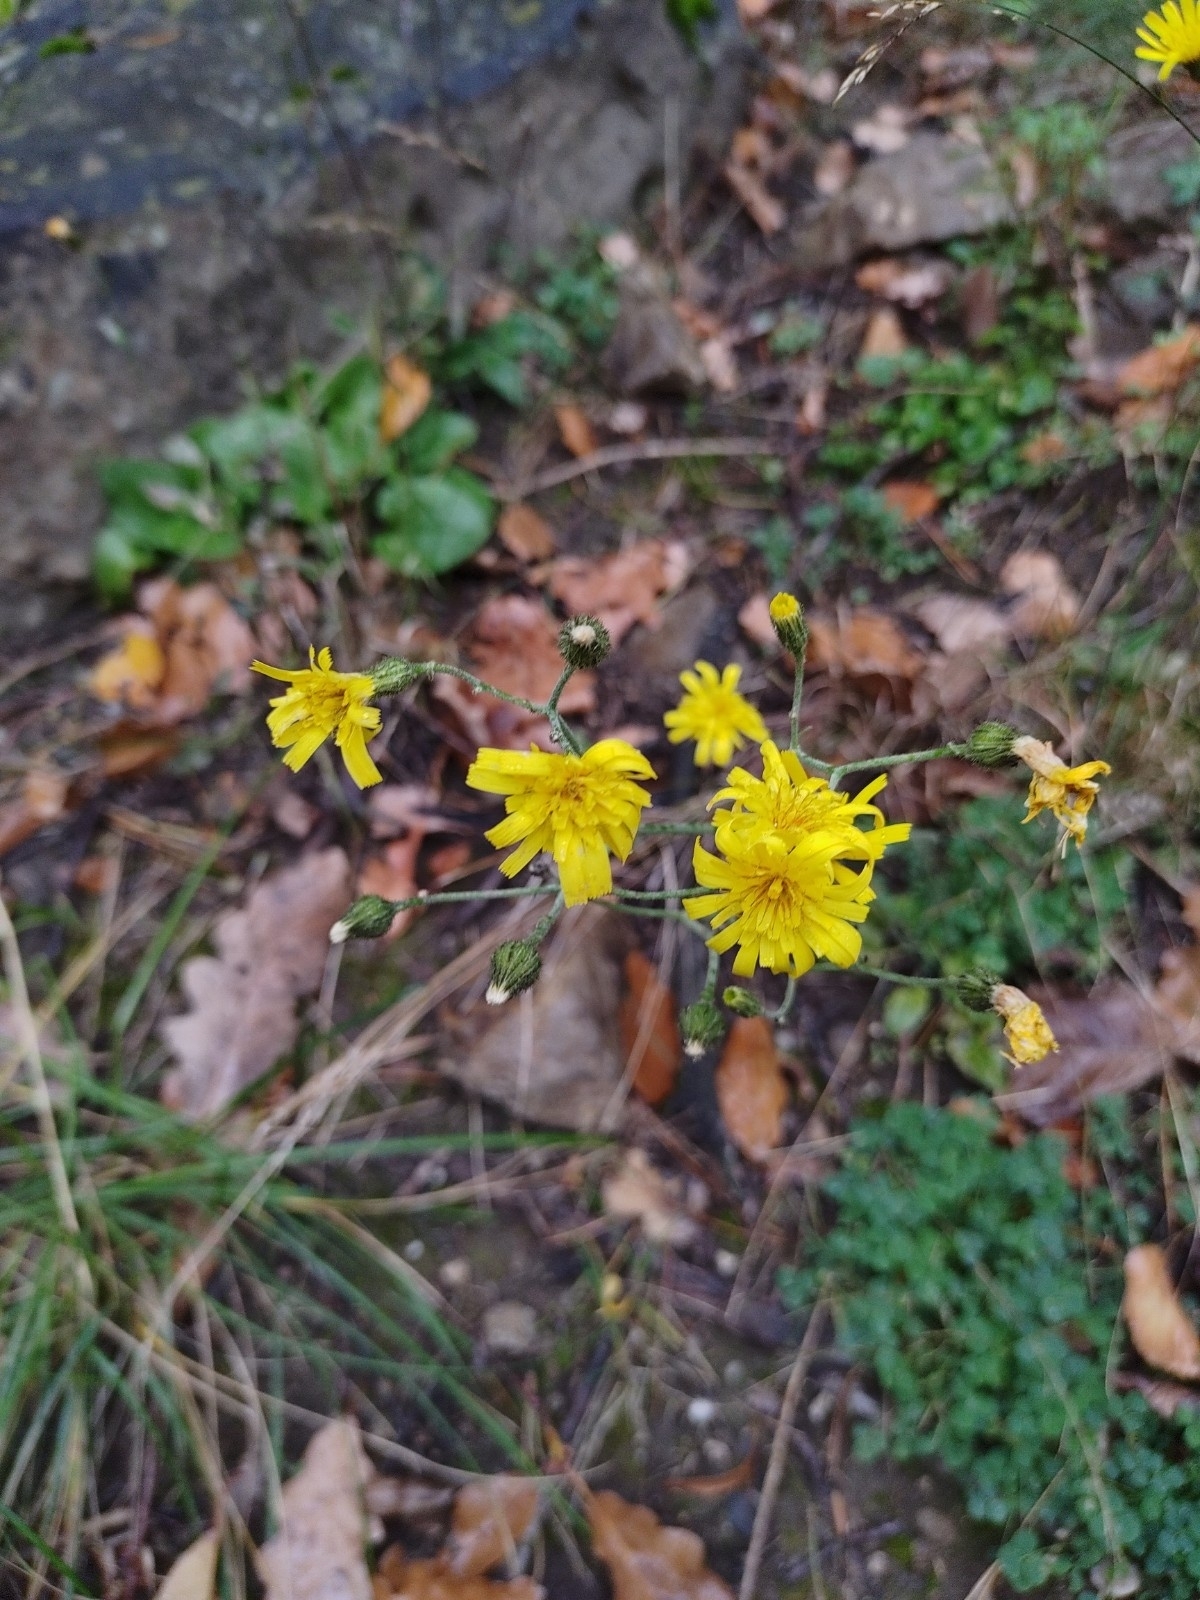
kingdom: Plantae
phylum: Tracheophyta
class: Magnoliopsida
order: Asterales
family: Asteraceae
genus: Hieracium
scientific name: Hieracium murorum
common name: Wall hawkweed
